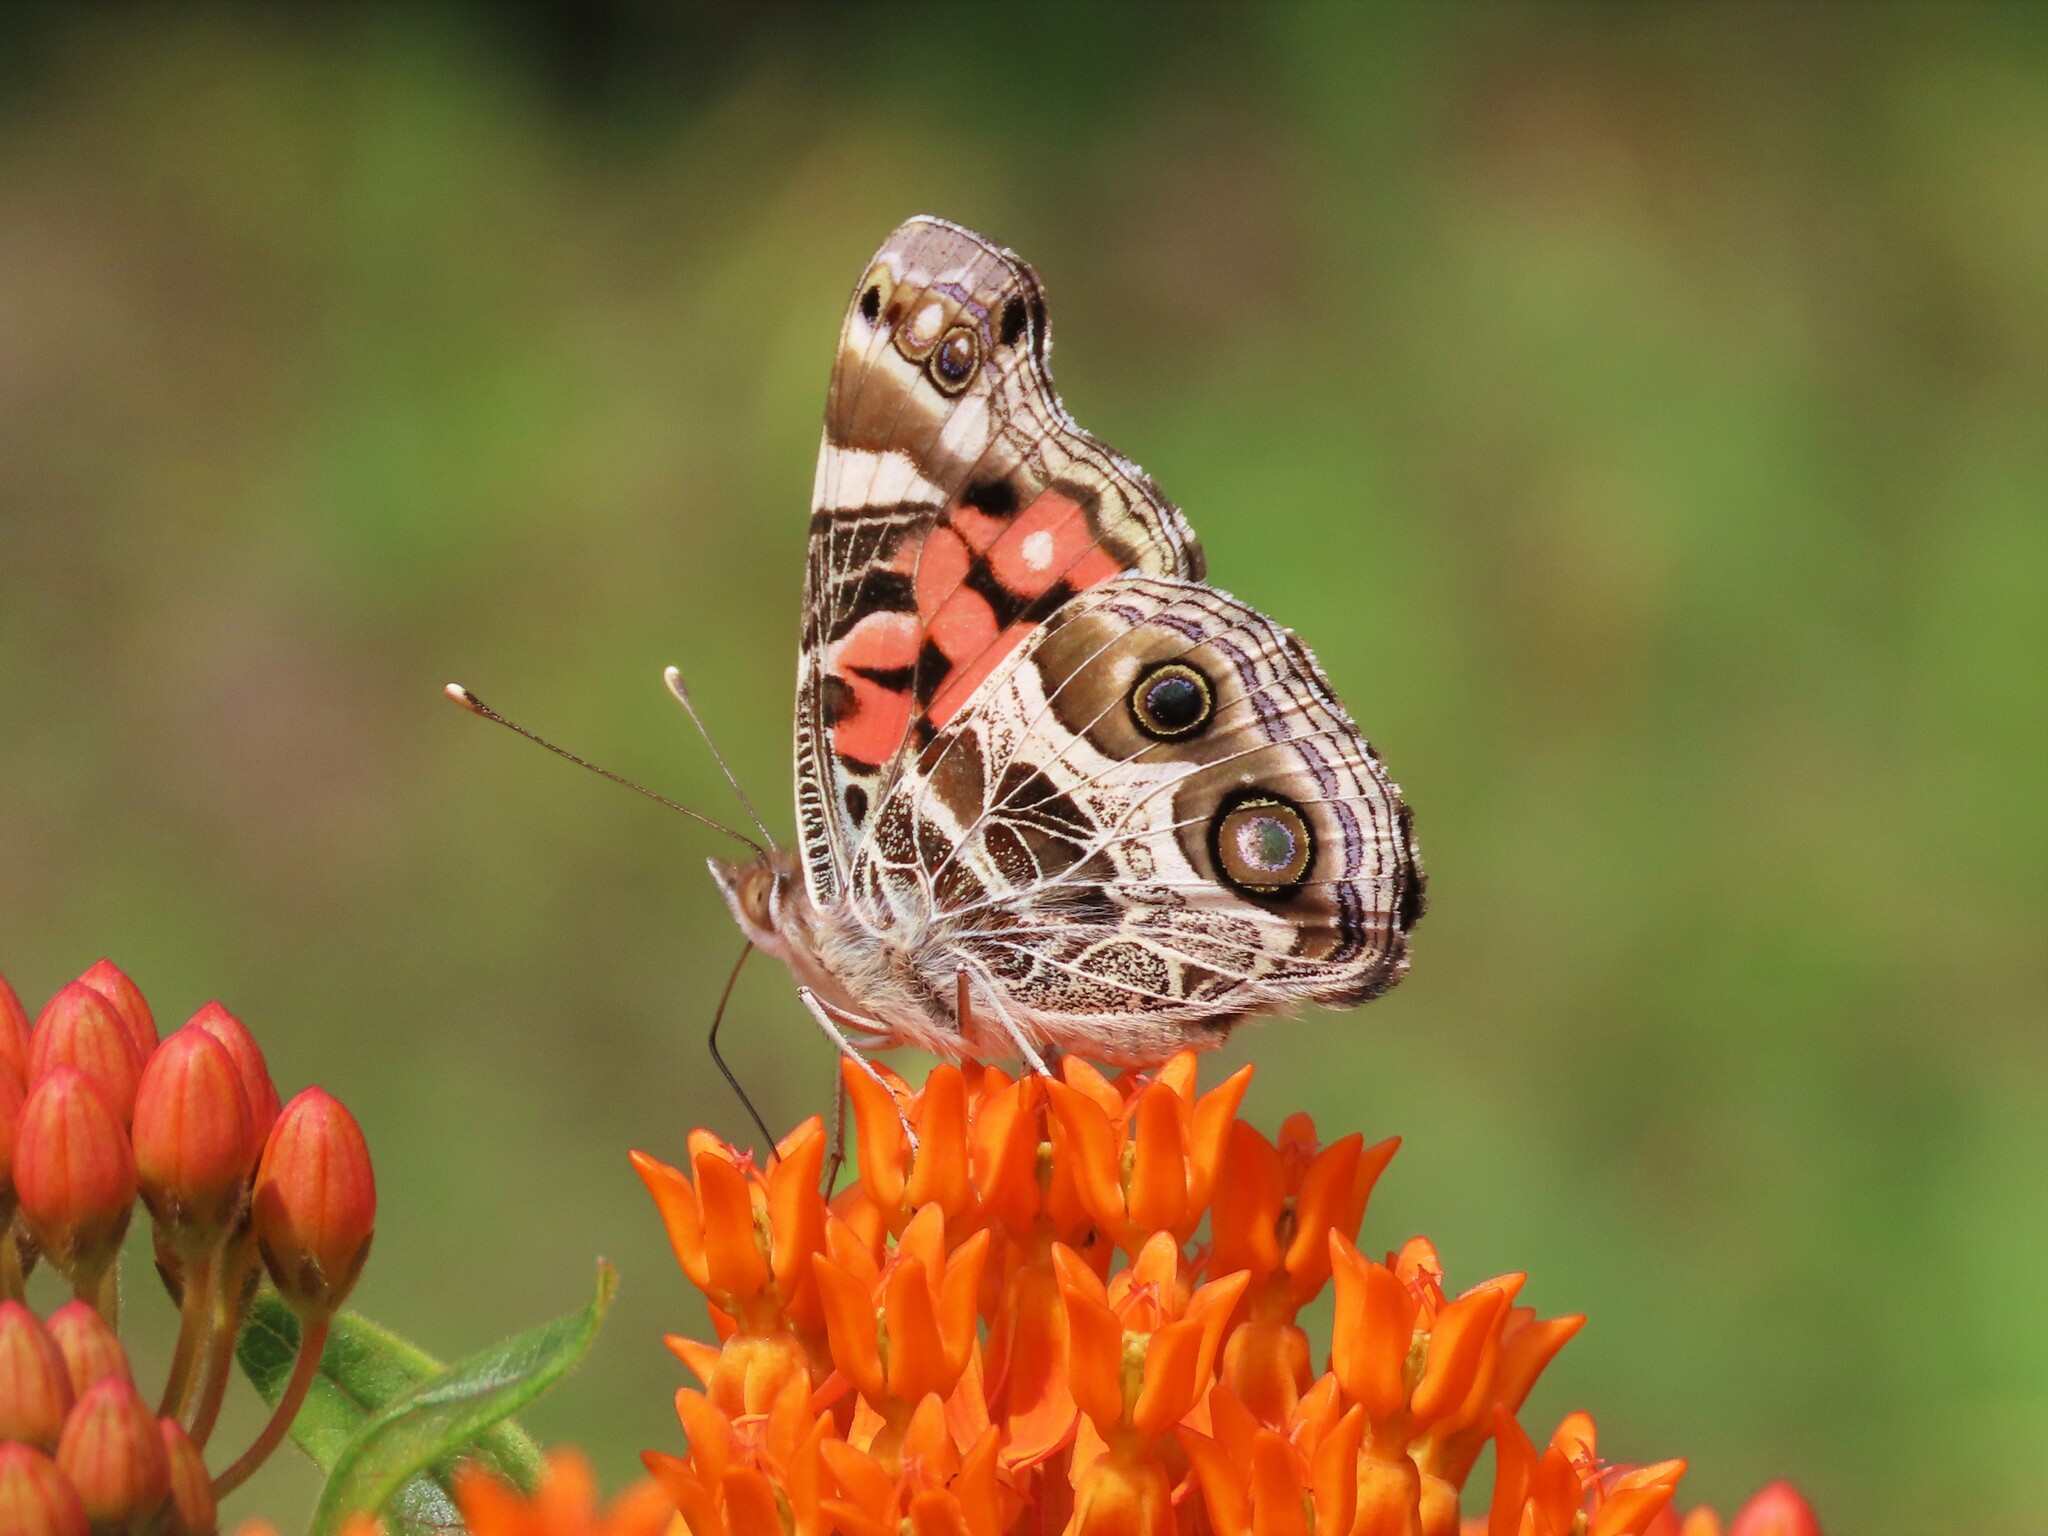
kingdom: Animalia
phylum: Arthropoda
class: Insecta
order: Lepidoptera
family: Nymphalidae
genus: Vanessa
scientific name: Vanessa virginiensis
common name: American lady
